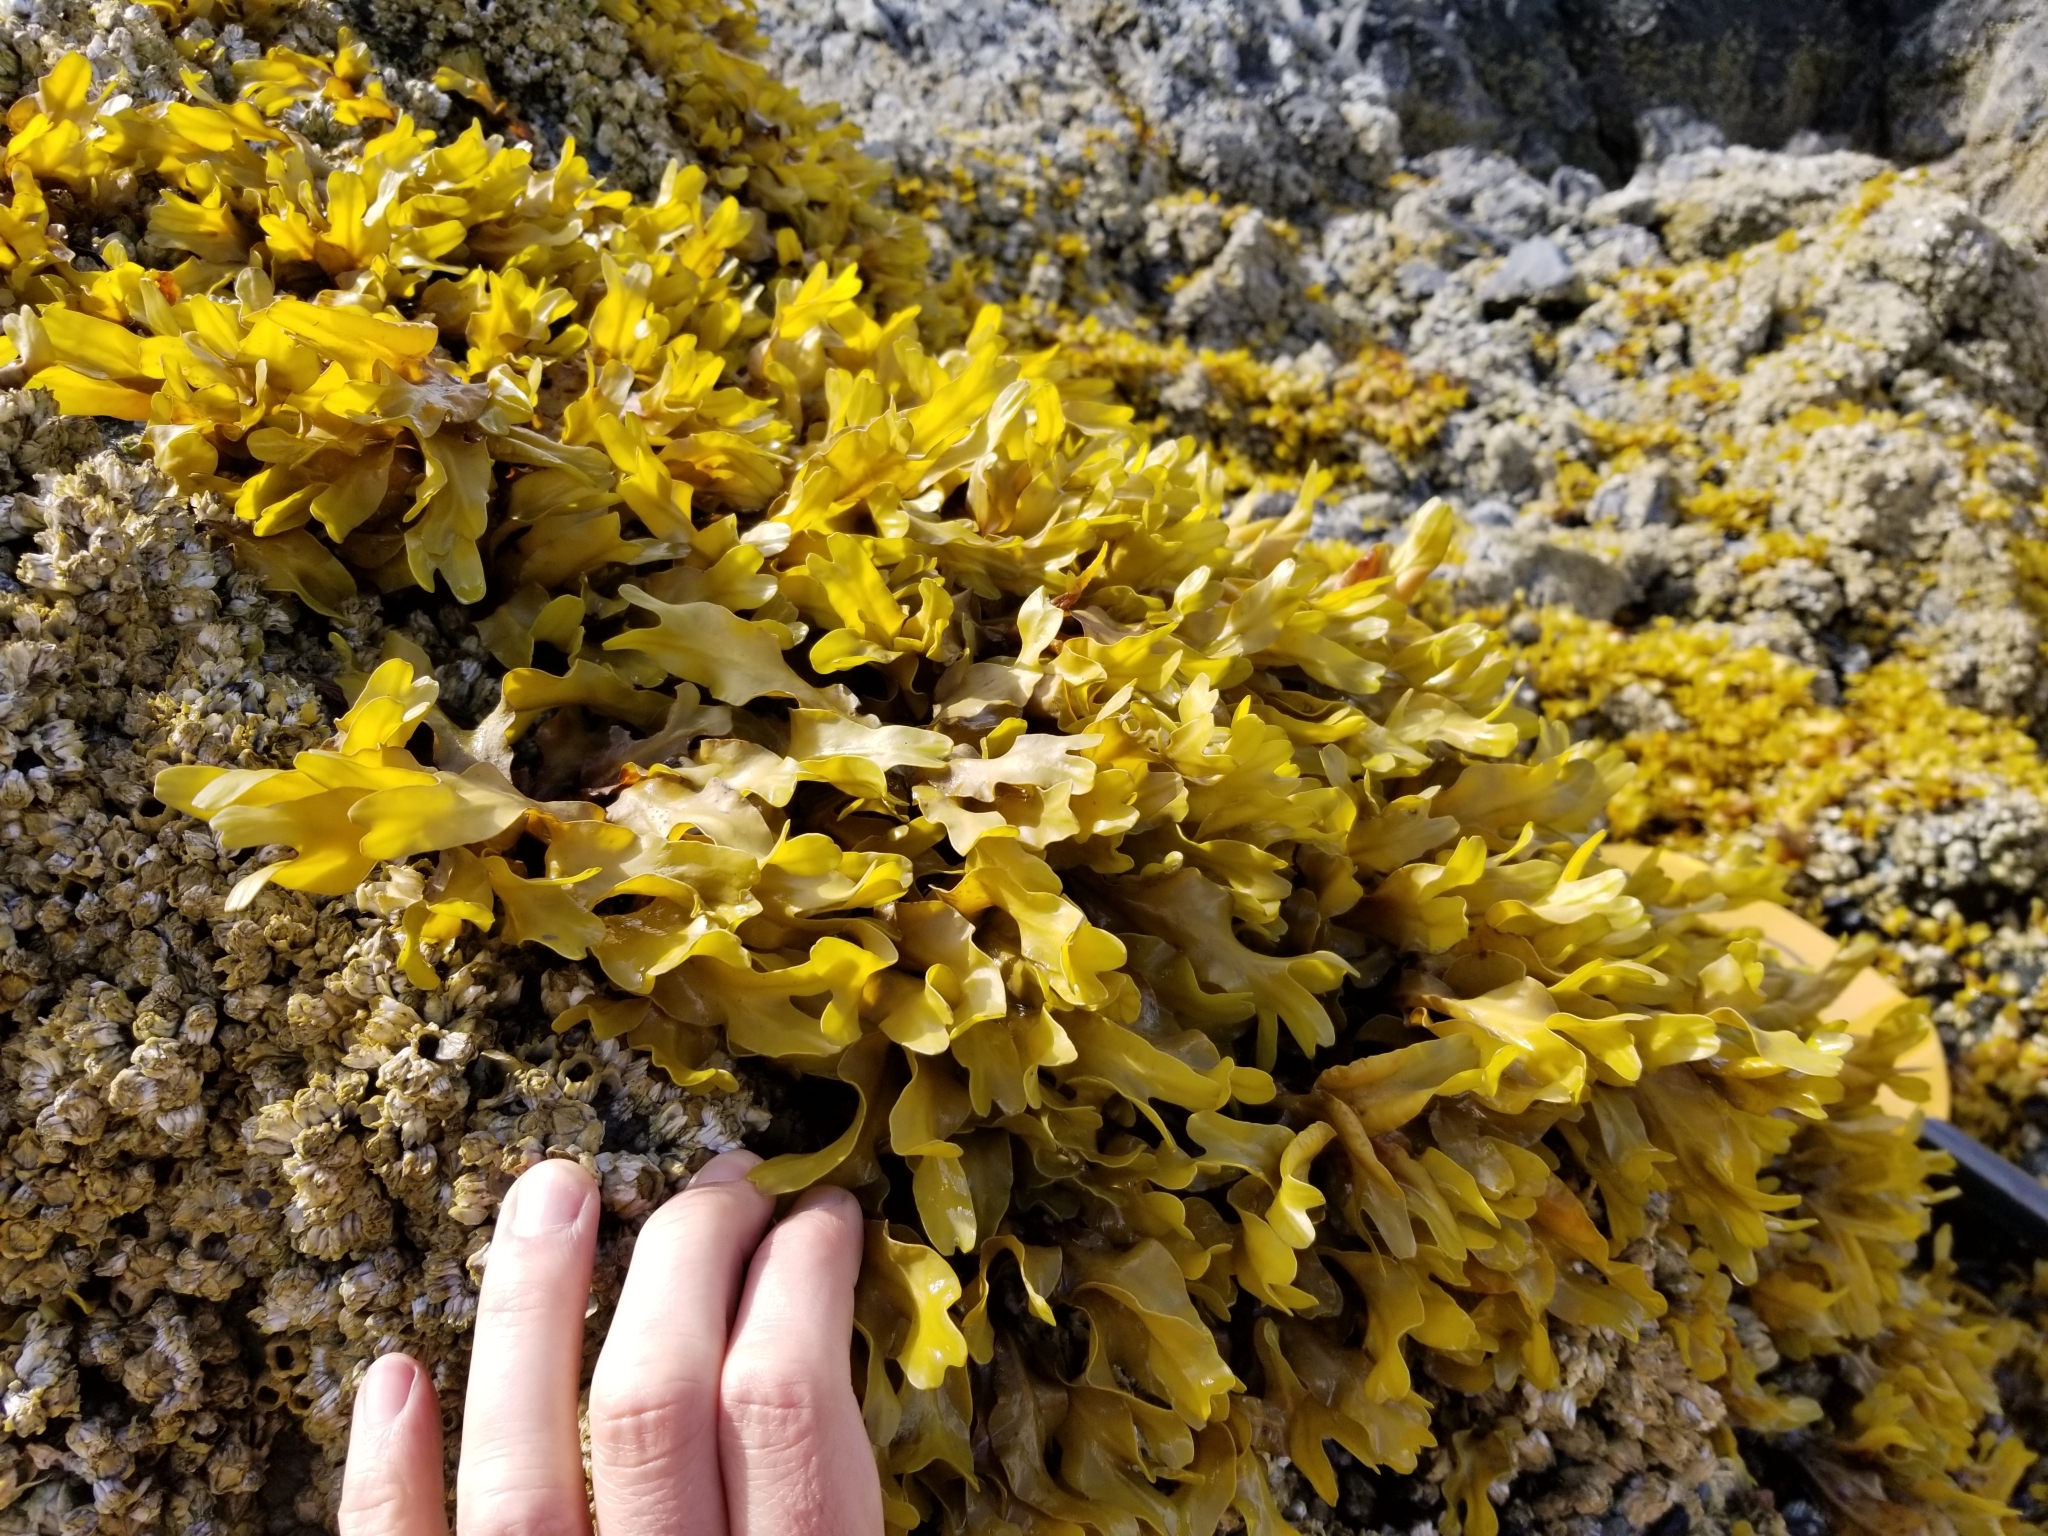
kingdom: Chromista
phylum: Ochrophyta
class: Phaeophyceae
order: Fucales
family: Fucaceae
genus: Fucus
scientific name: Fucus distichus
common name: Rockweed
